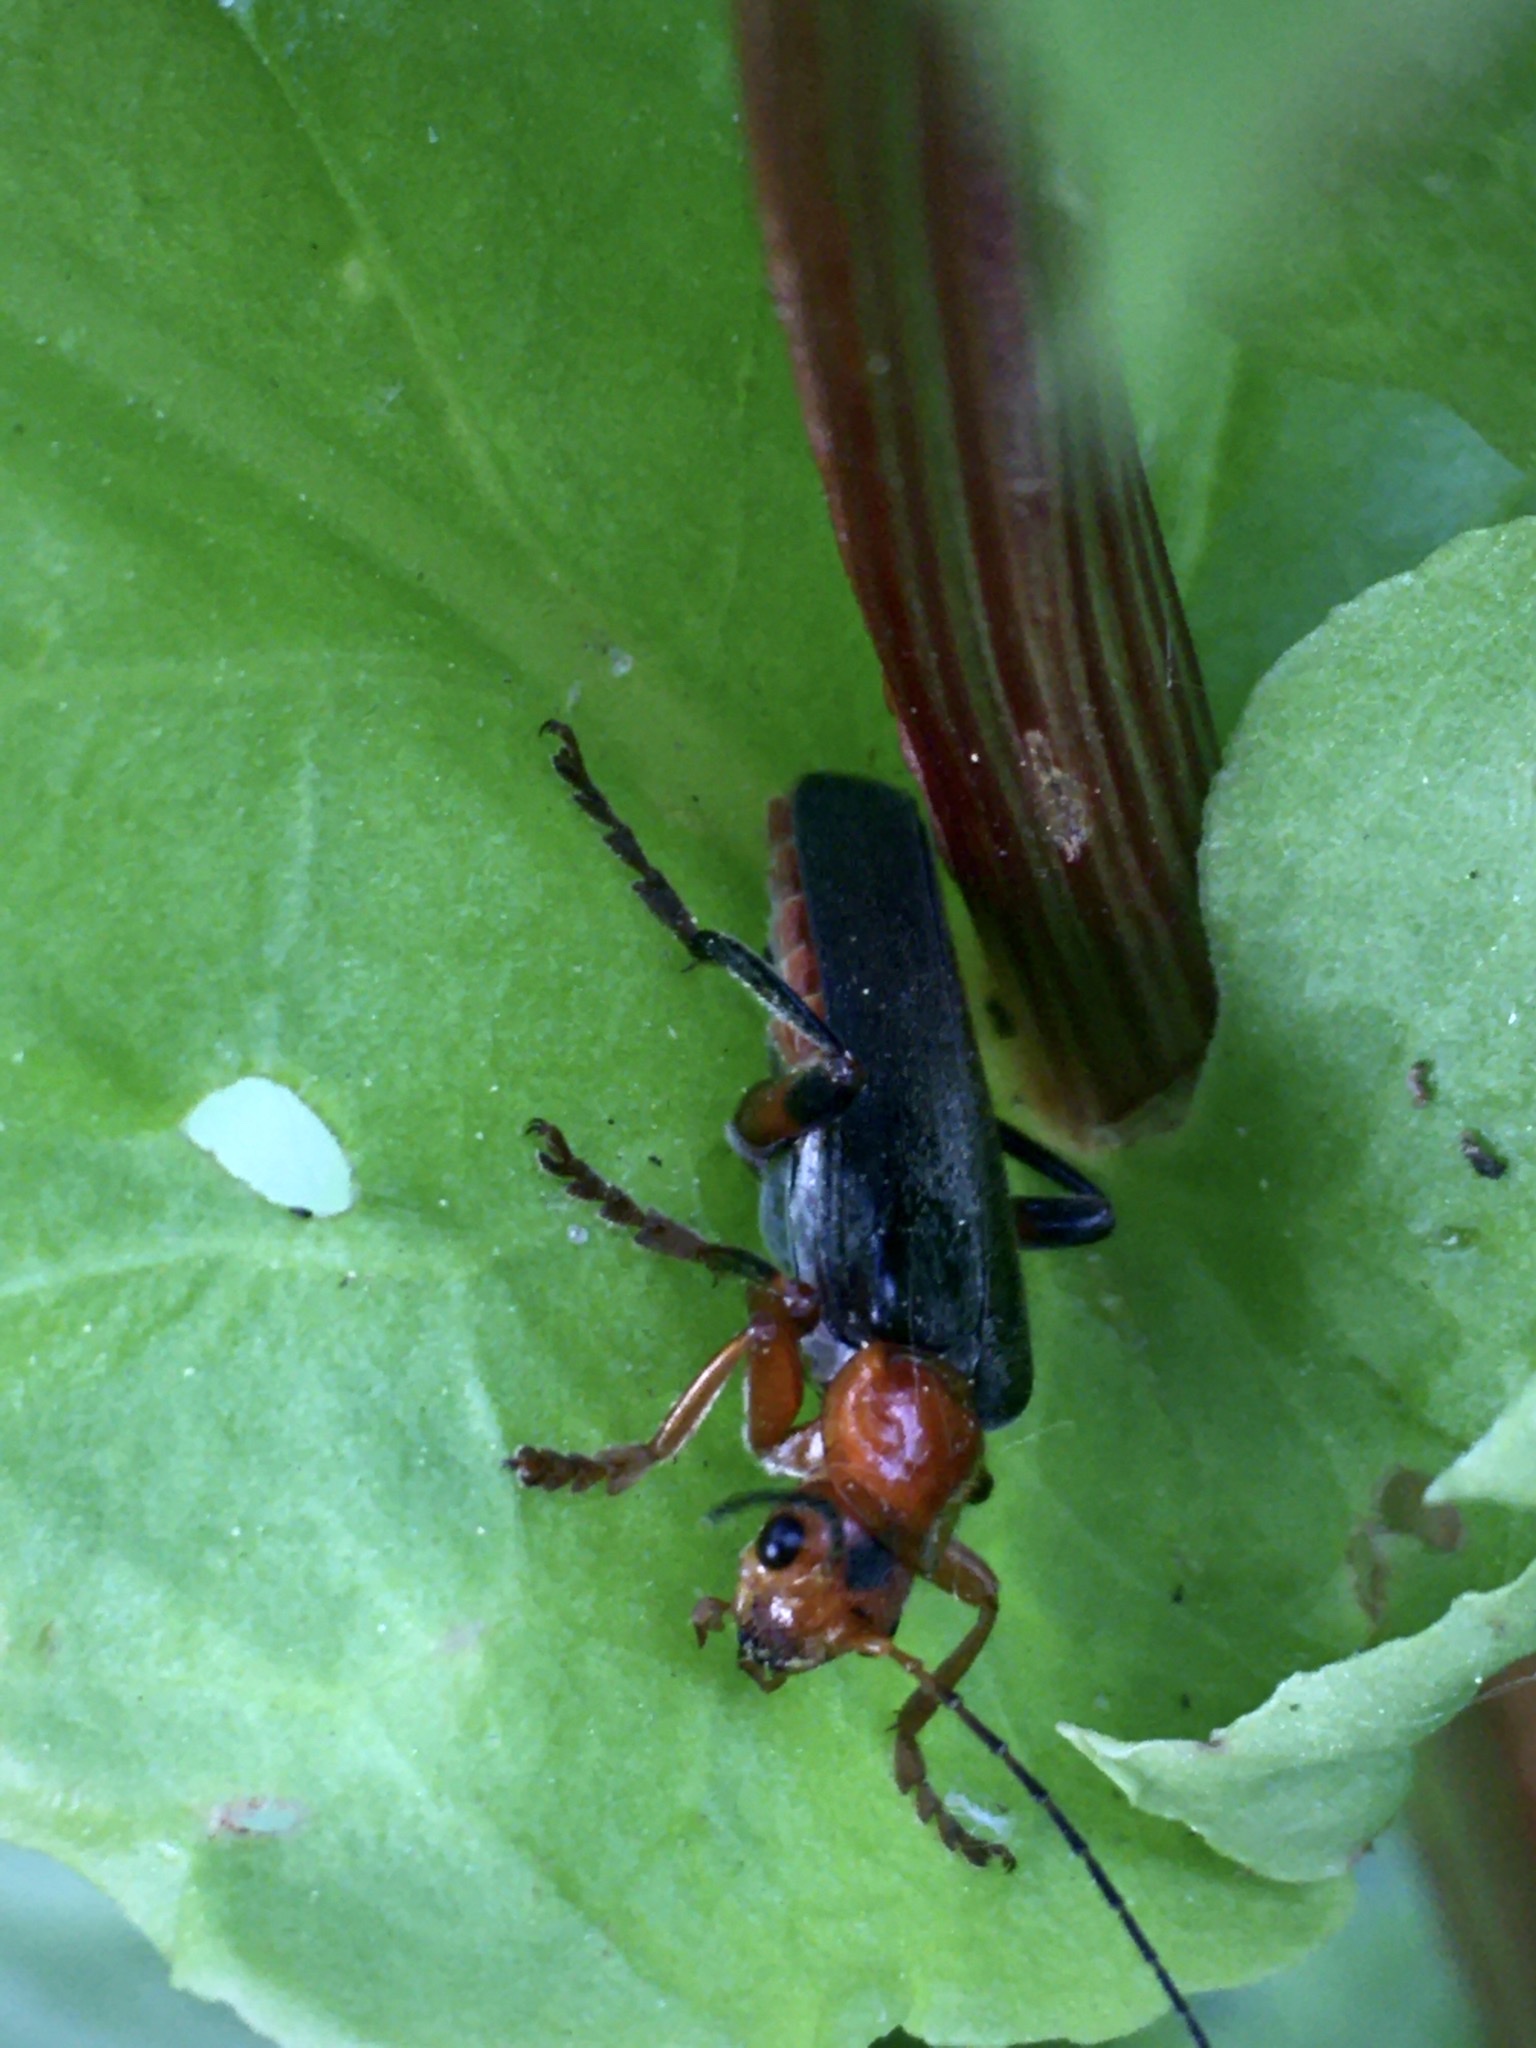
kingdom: Animalia
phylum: Arthropoda
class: Insecta
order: Coleoptera
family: Cantharidae
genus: Cantharis
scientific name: Cantharis livida
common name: Livid soldier beetle
